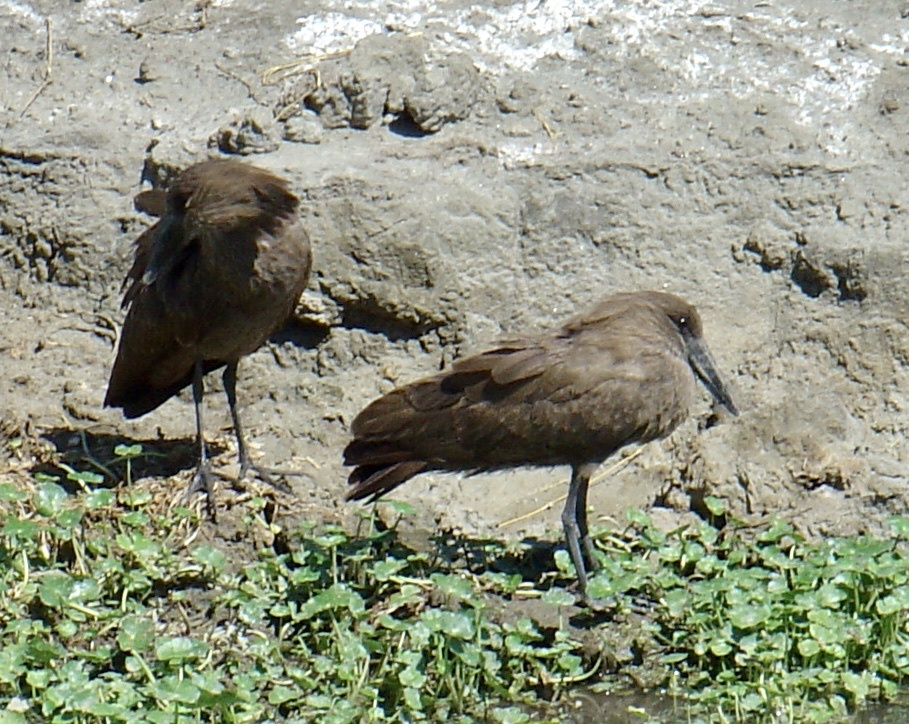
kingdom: Animalia
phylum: Chordata
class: Aves
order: Pelecaniformes
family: Scopidae
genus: Scopus
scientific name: Scopus umbretta
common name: Hamerkop
